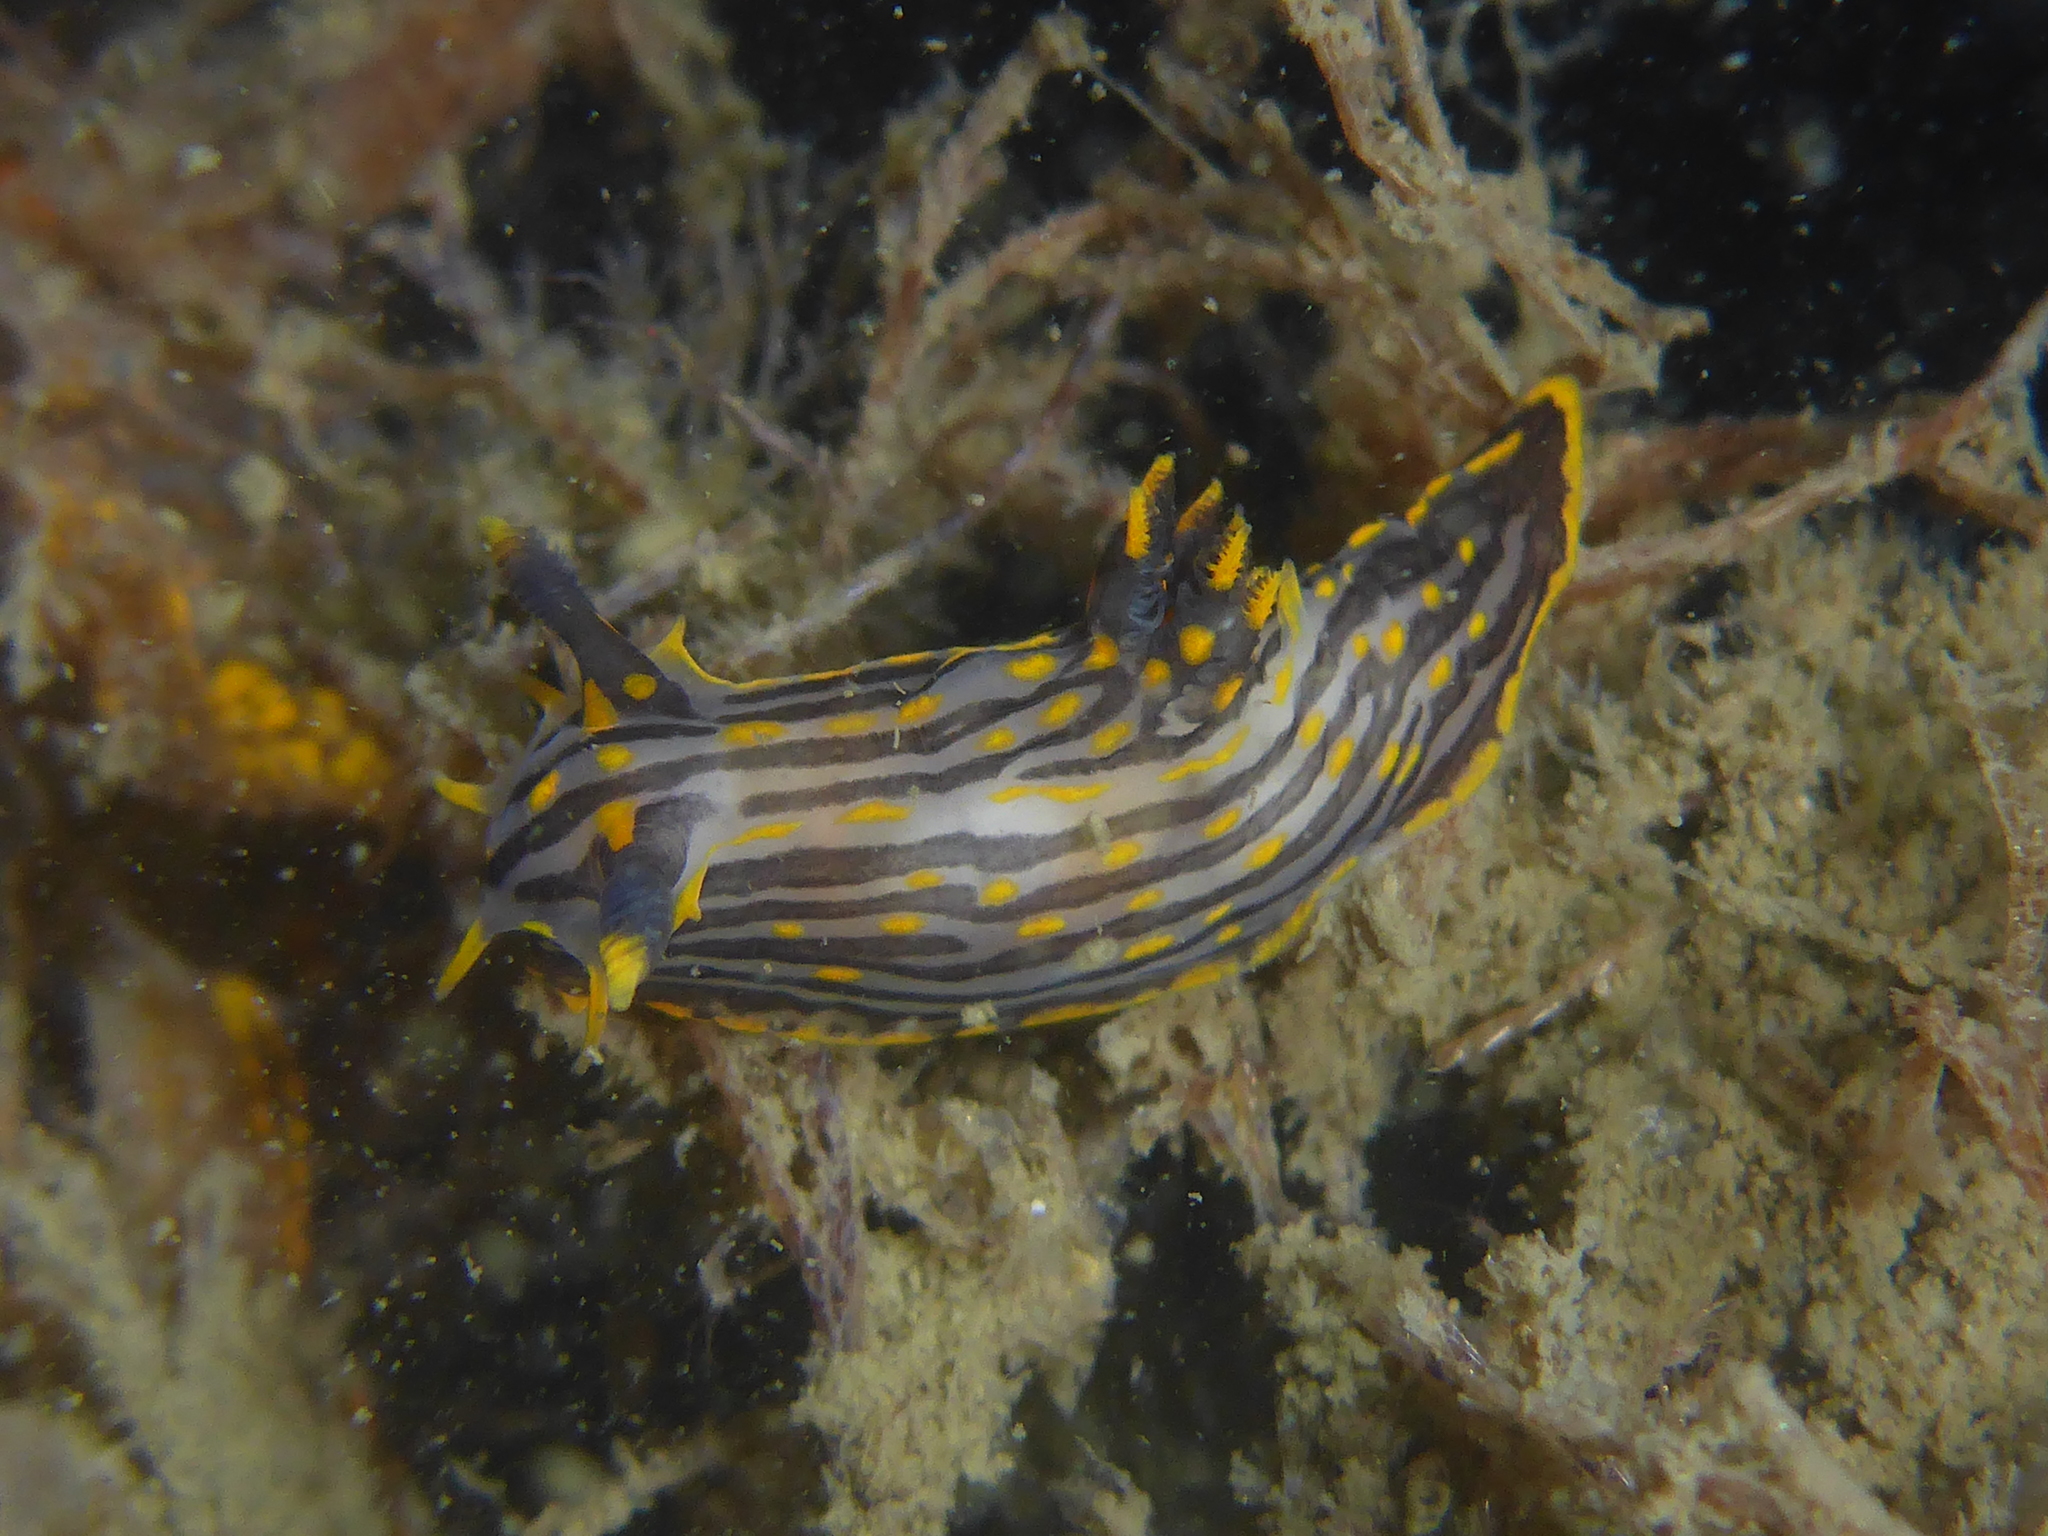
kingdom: Animalia
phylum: Mollusca
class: Gastropoda
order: Nudibranchia
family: Polyceridae
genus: Polycera
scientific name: Polycera atra
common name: Orange-spike polycera
